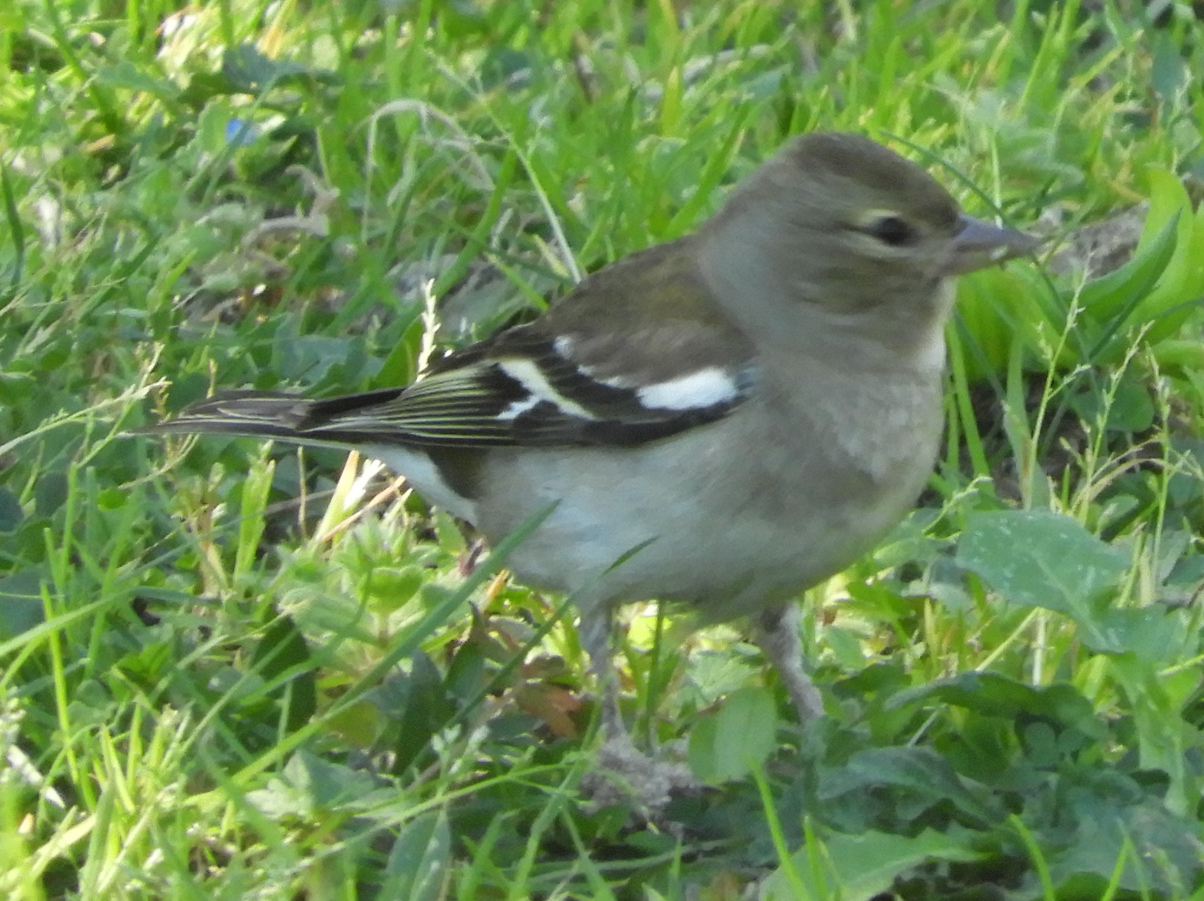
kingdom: Animalia
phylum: Chordata
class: Aves
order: Passeriformes
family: Fringillidae
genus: Fringilla
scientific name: Fringilla coelebs
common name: Common chaffinch
